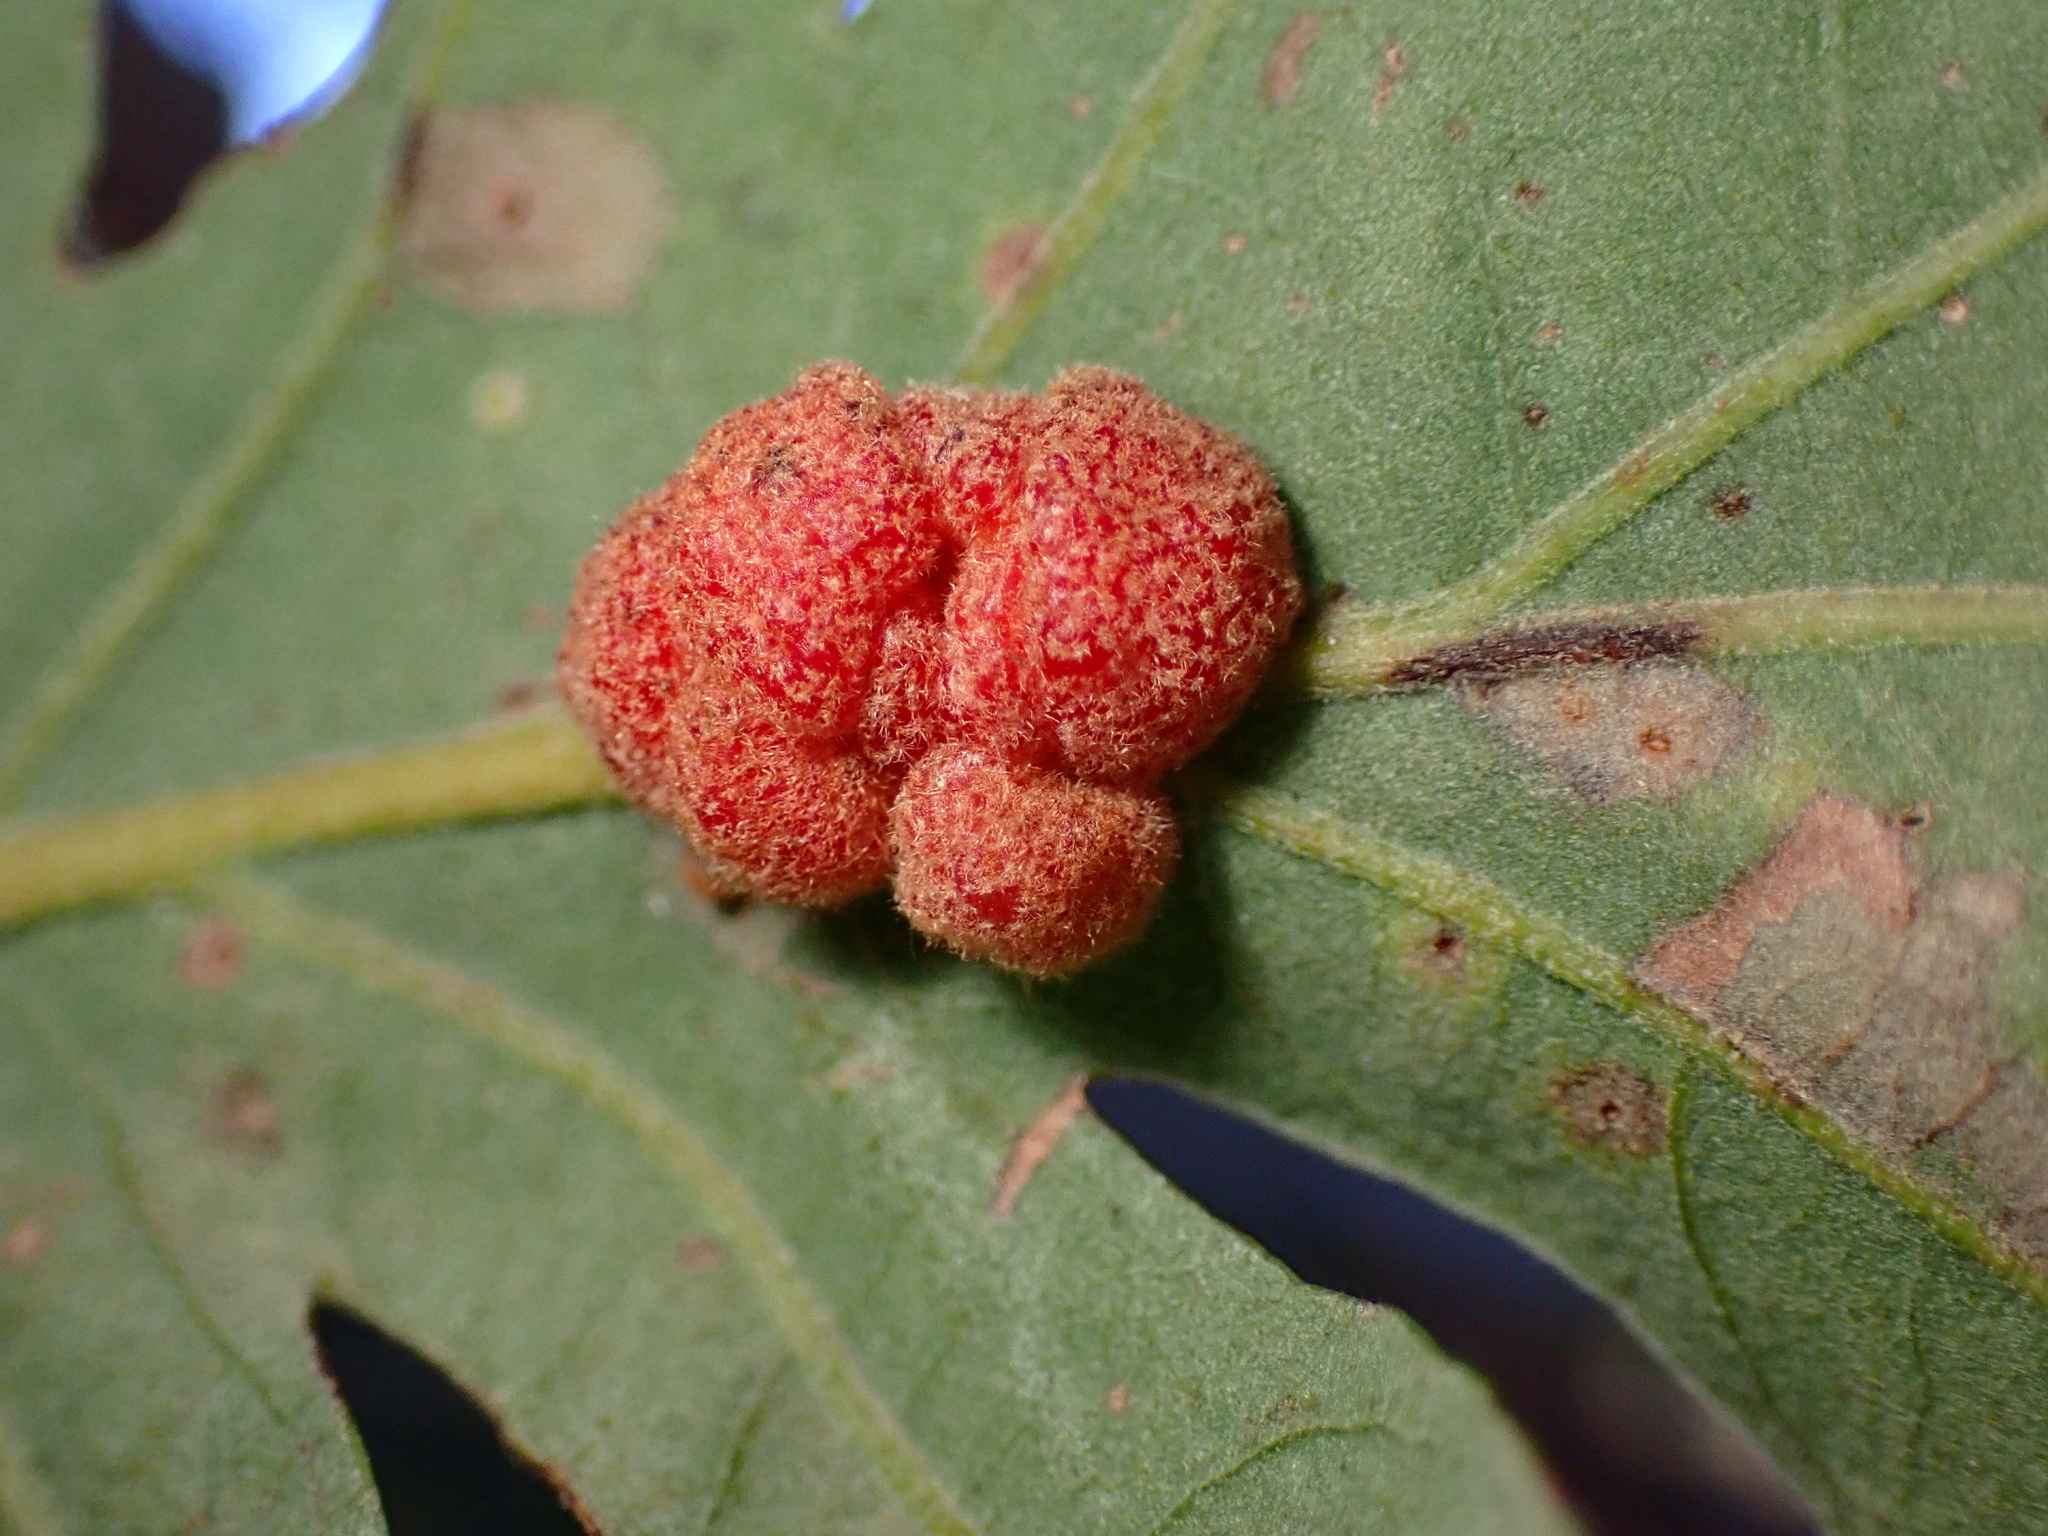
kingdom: Animalia
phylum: Arthropoda
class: Insecta
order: Hymenoptera
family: Cynipidae
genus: Andricus
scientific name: Andricus
